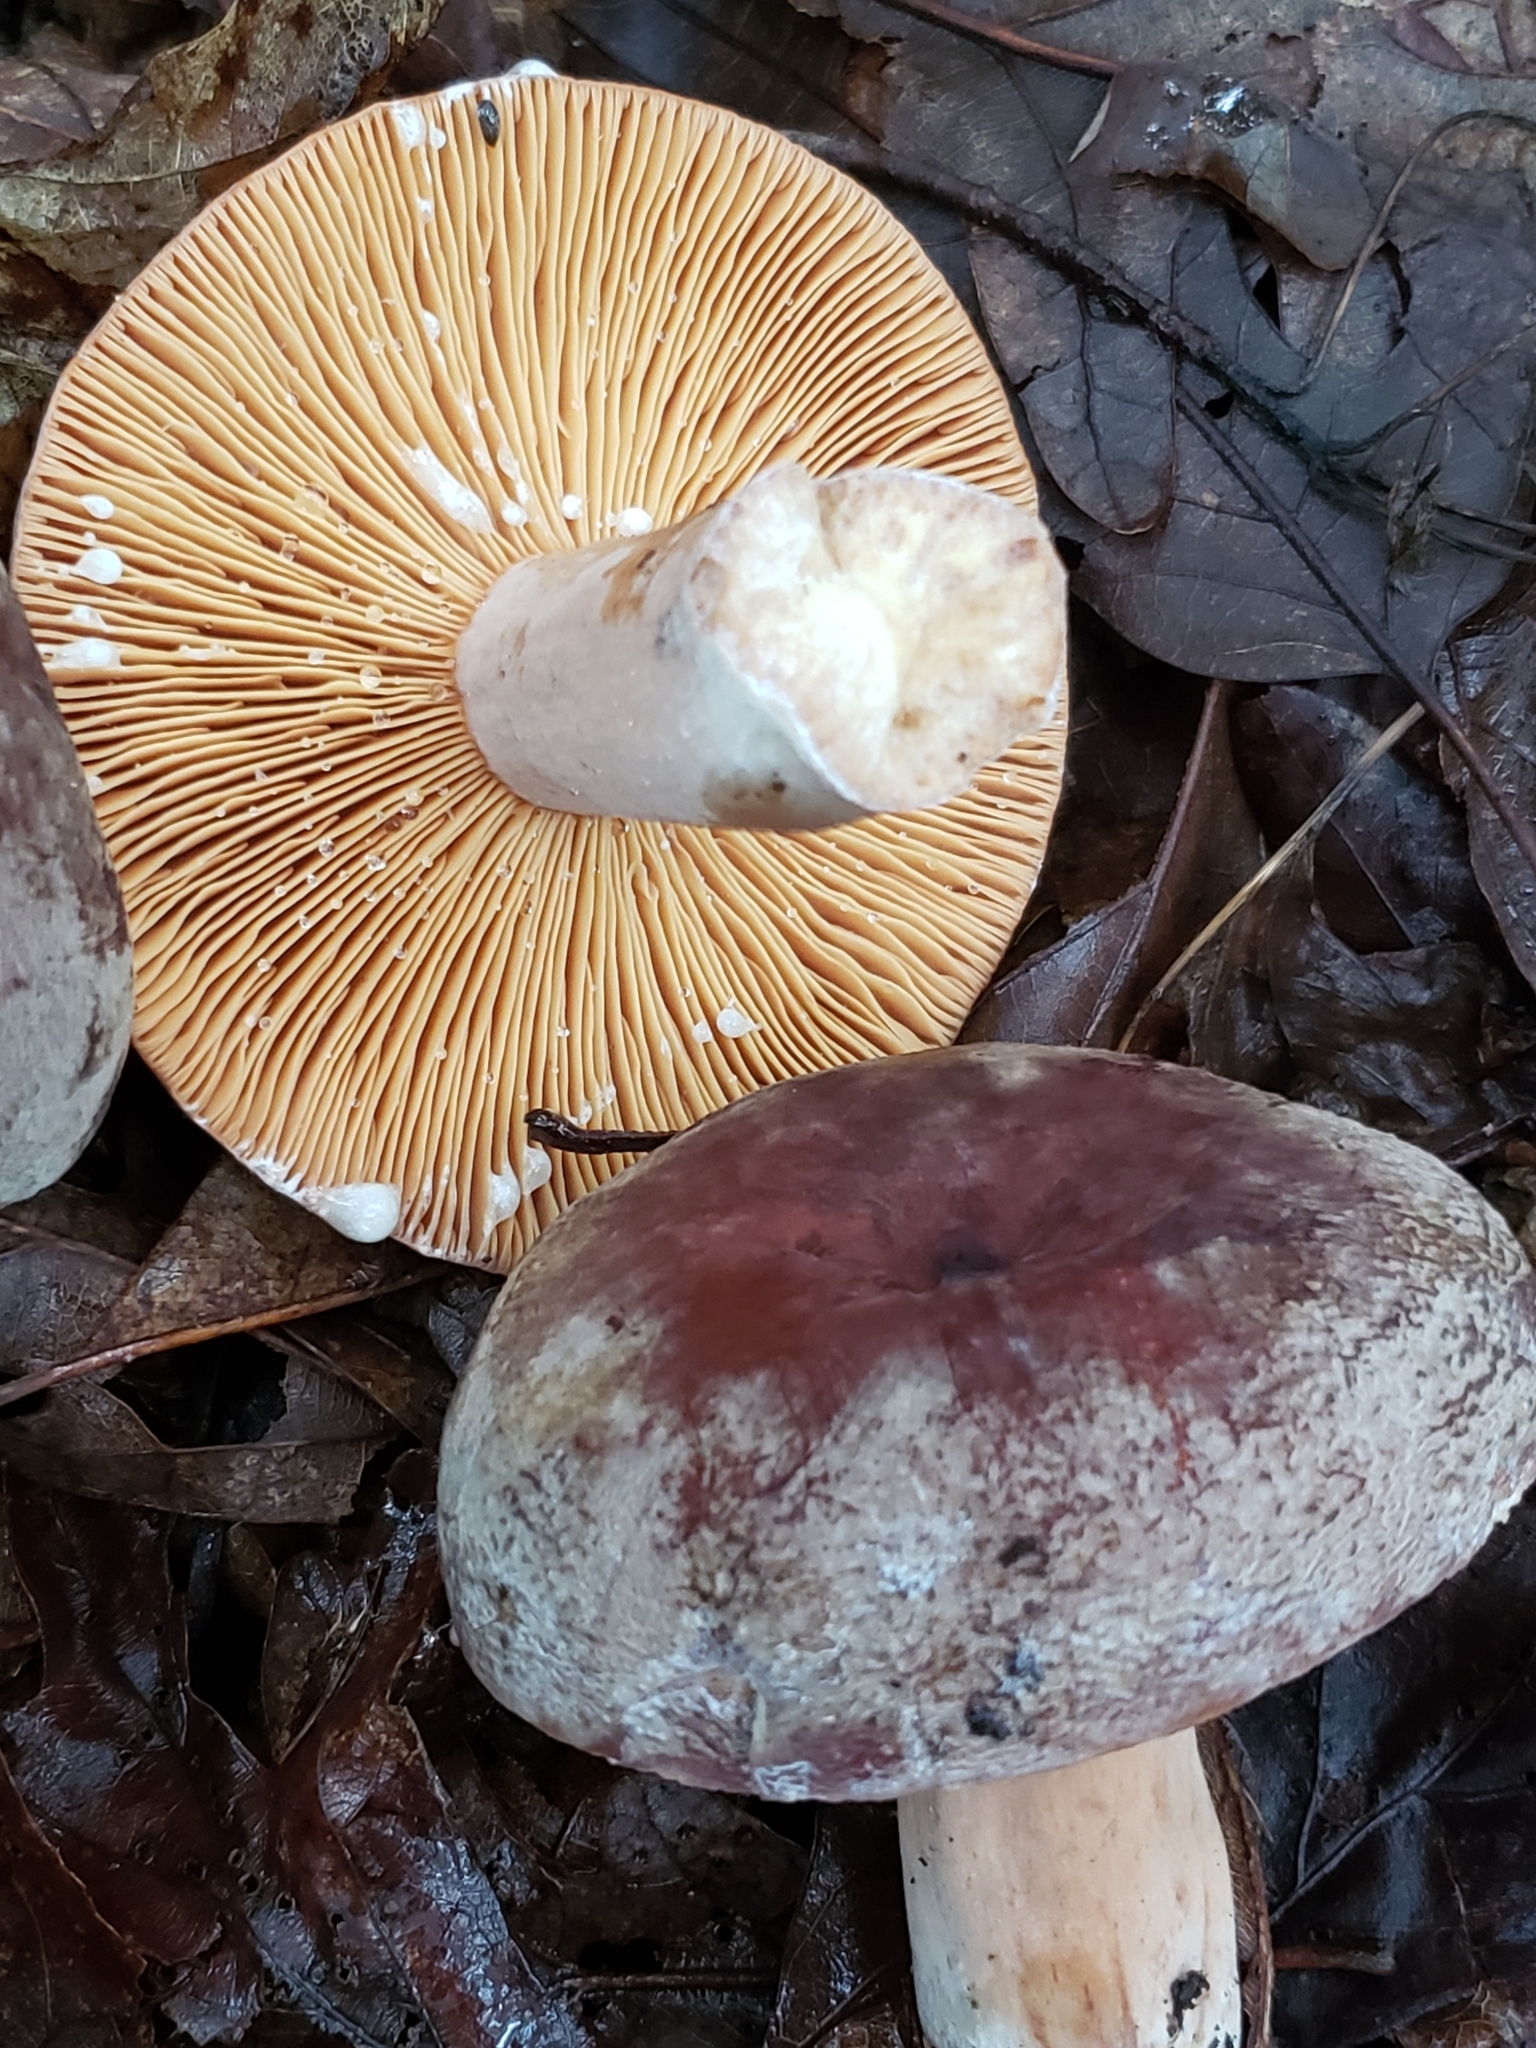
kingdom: Fungi
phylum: Basidiomycota
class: Agaricomycetes
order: Russulales
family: Russulaceae
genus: Lactarius
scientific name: Lactarius corrugis
